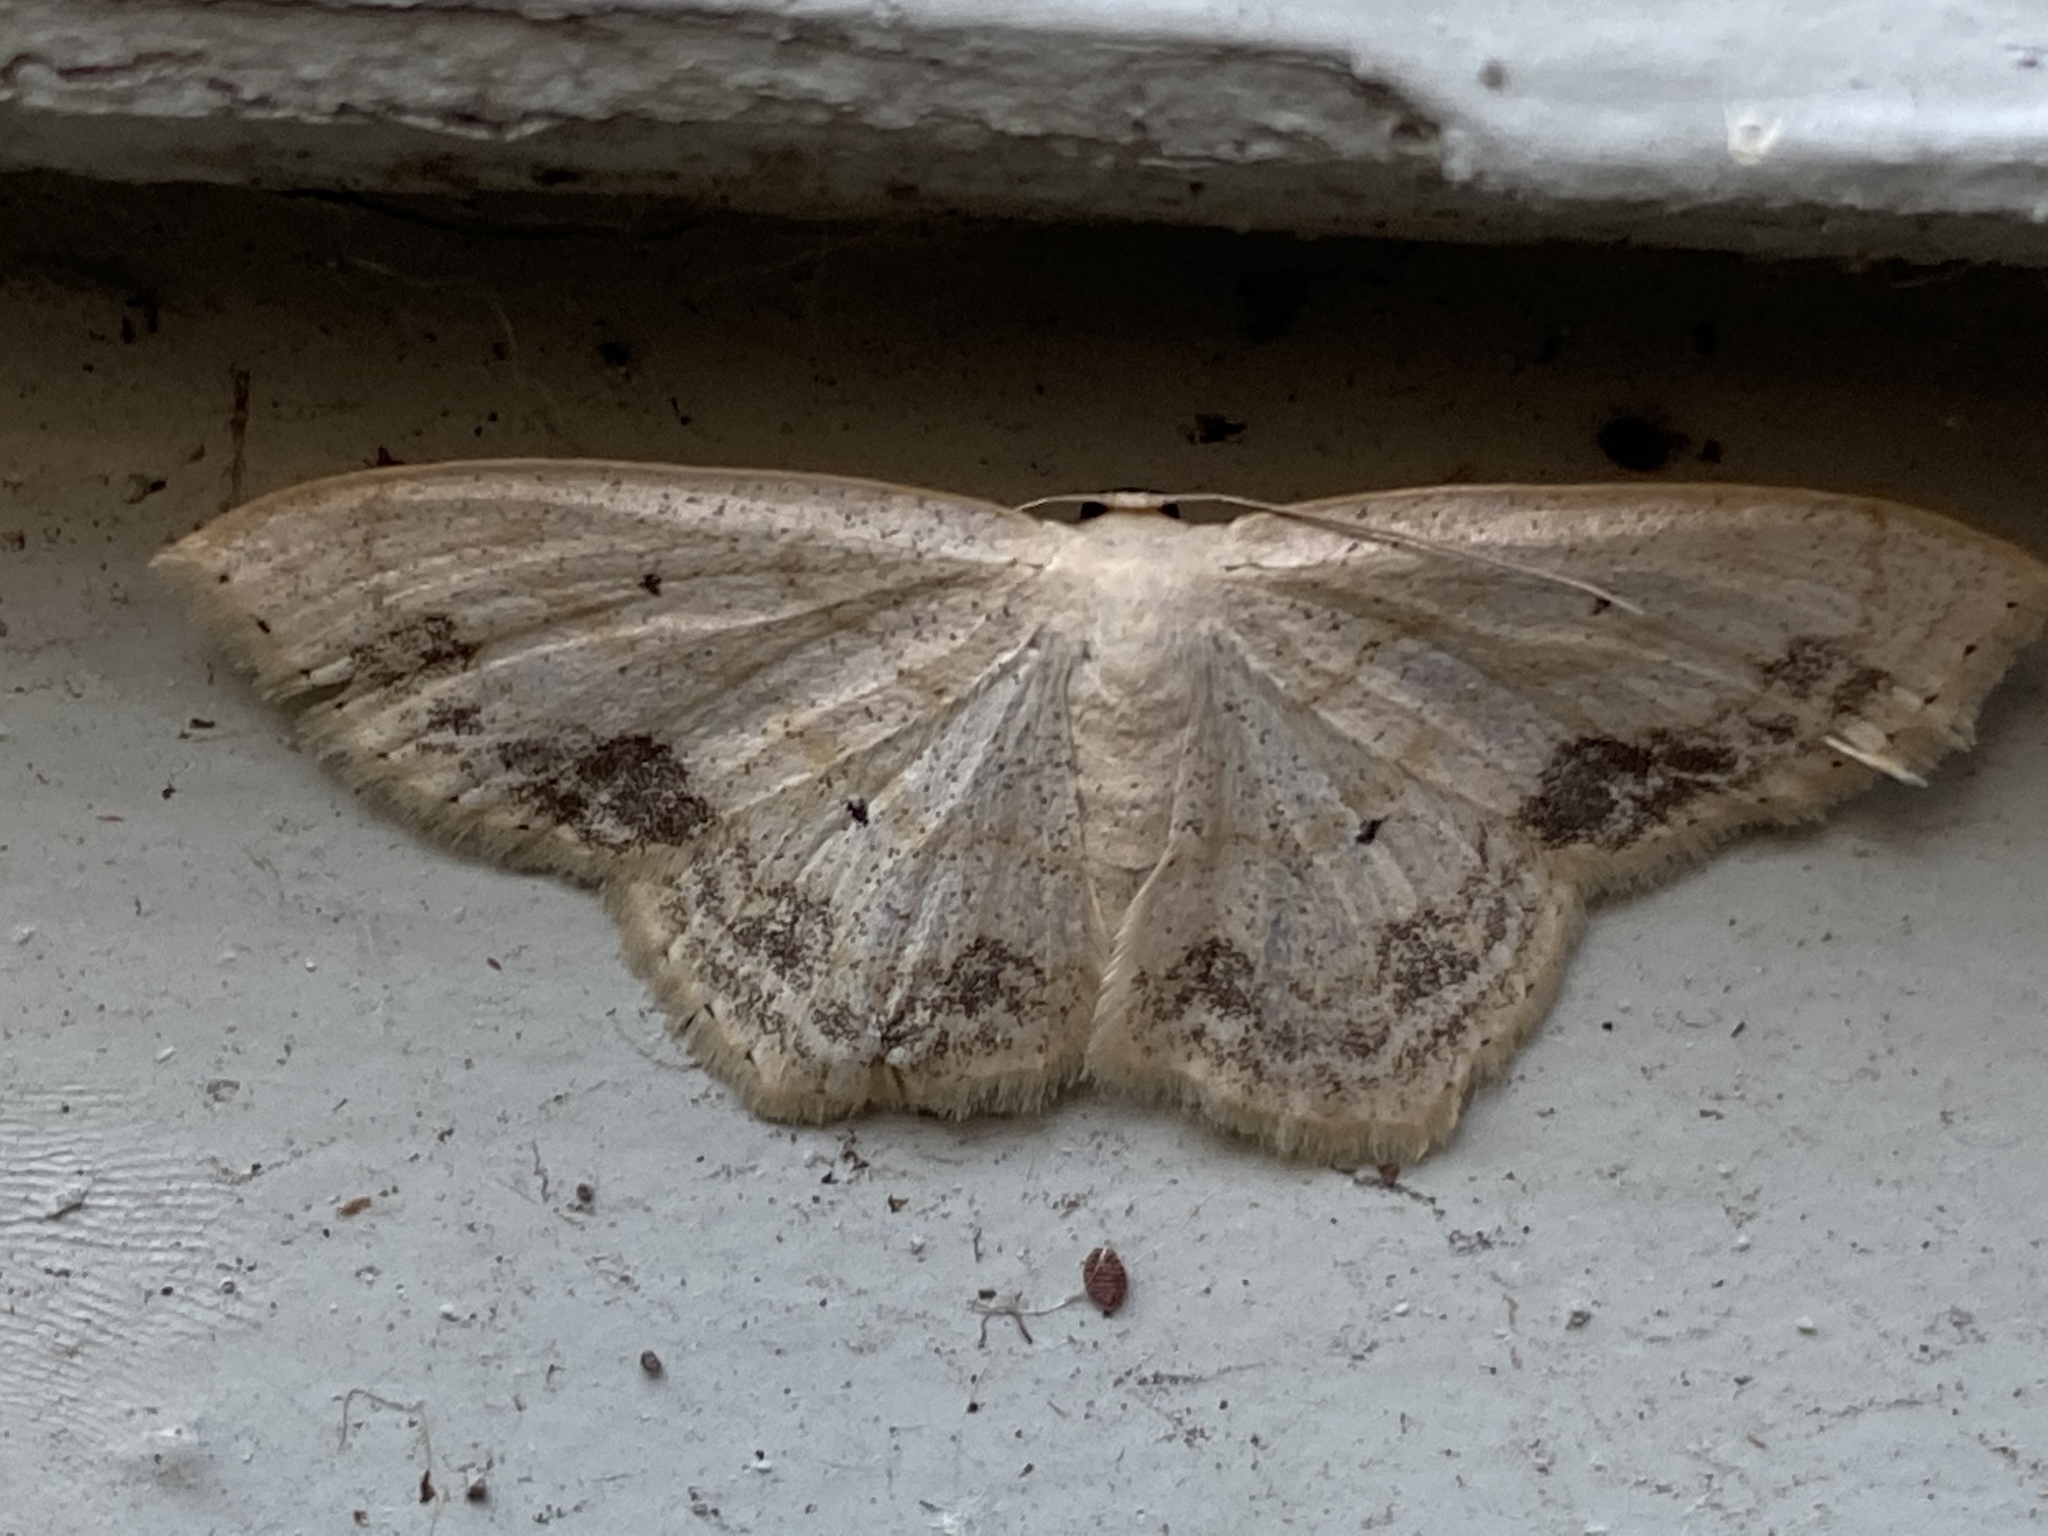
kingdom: Animalia
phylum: Arthropoda
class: Insecta
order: Lepidoptera
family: Geometridae
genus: Scopula
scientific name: Scopula limboundata
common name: Large lace border
